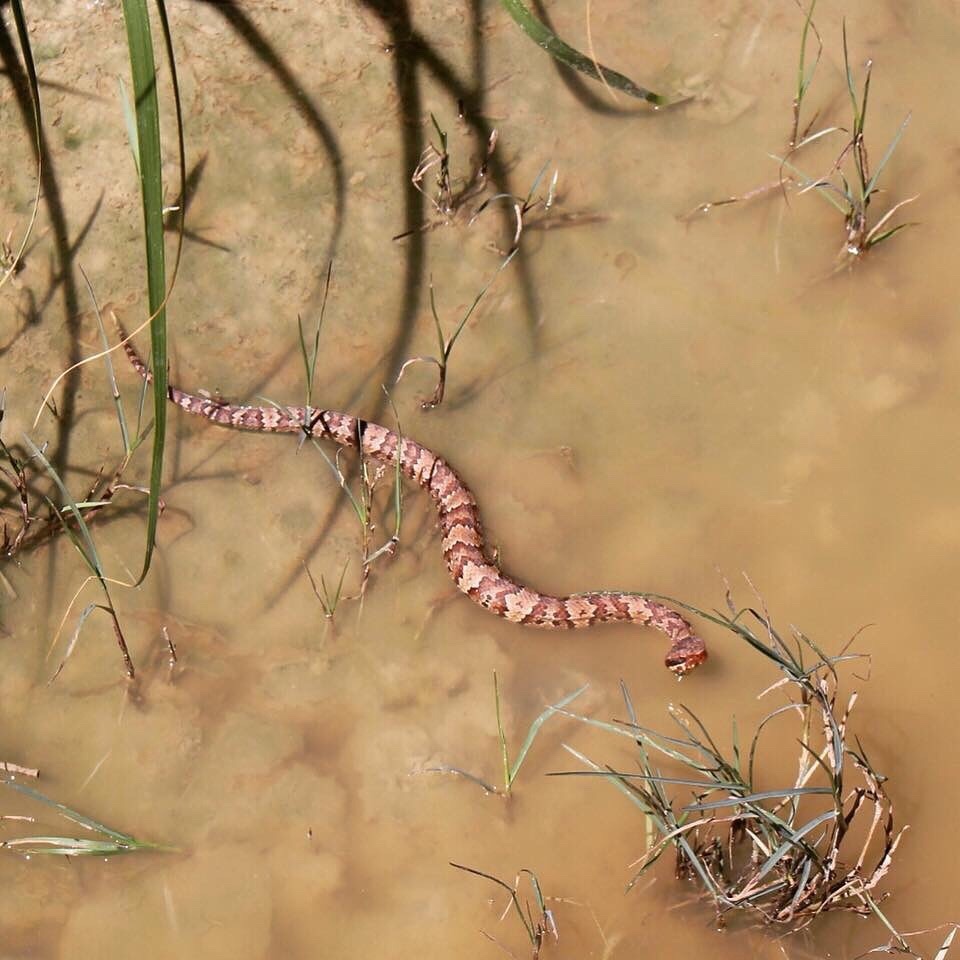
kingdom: Animalia
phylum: Chordata
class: Squamata
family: Viperidae
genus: Agkistrodon
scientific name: Agkistrodon piscivorus
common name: Cottonmouth
